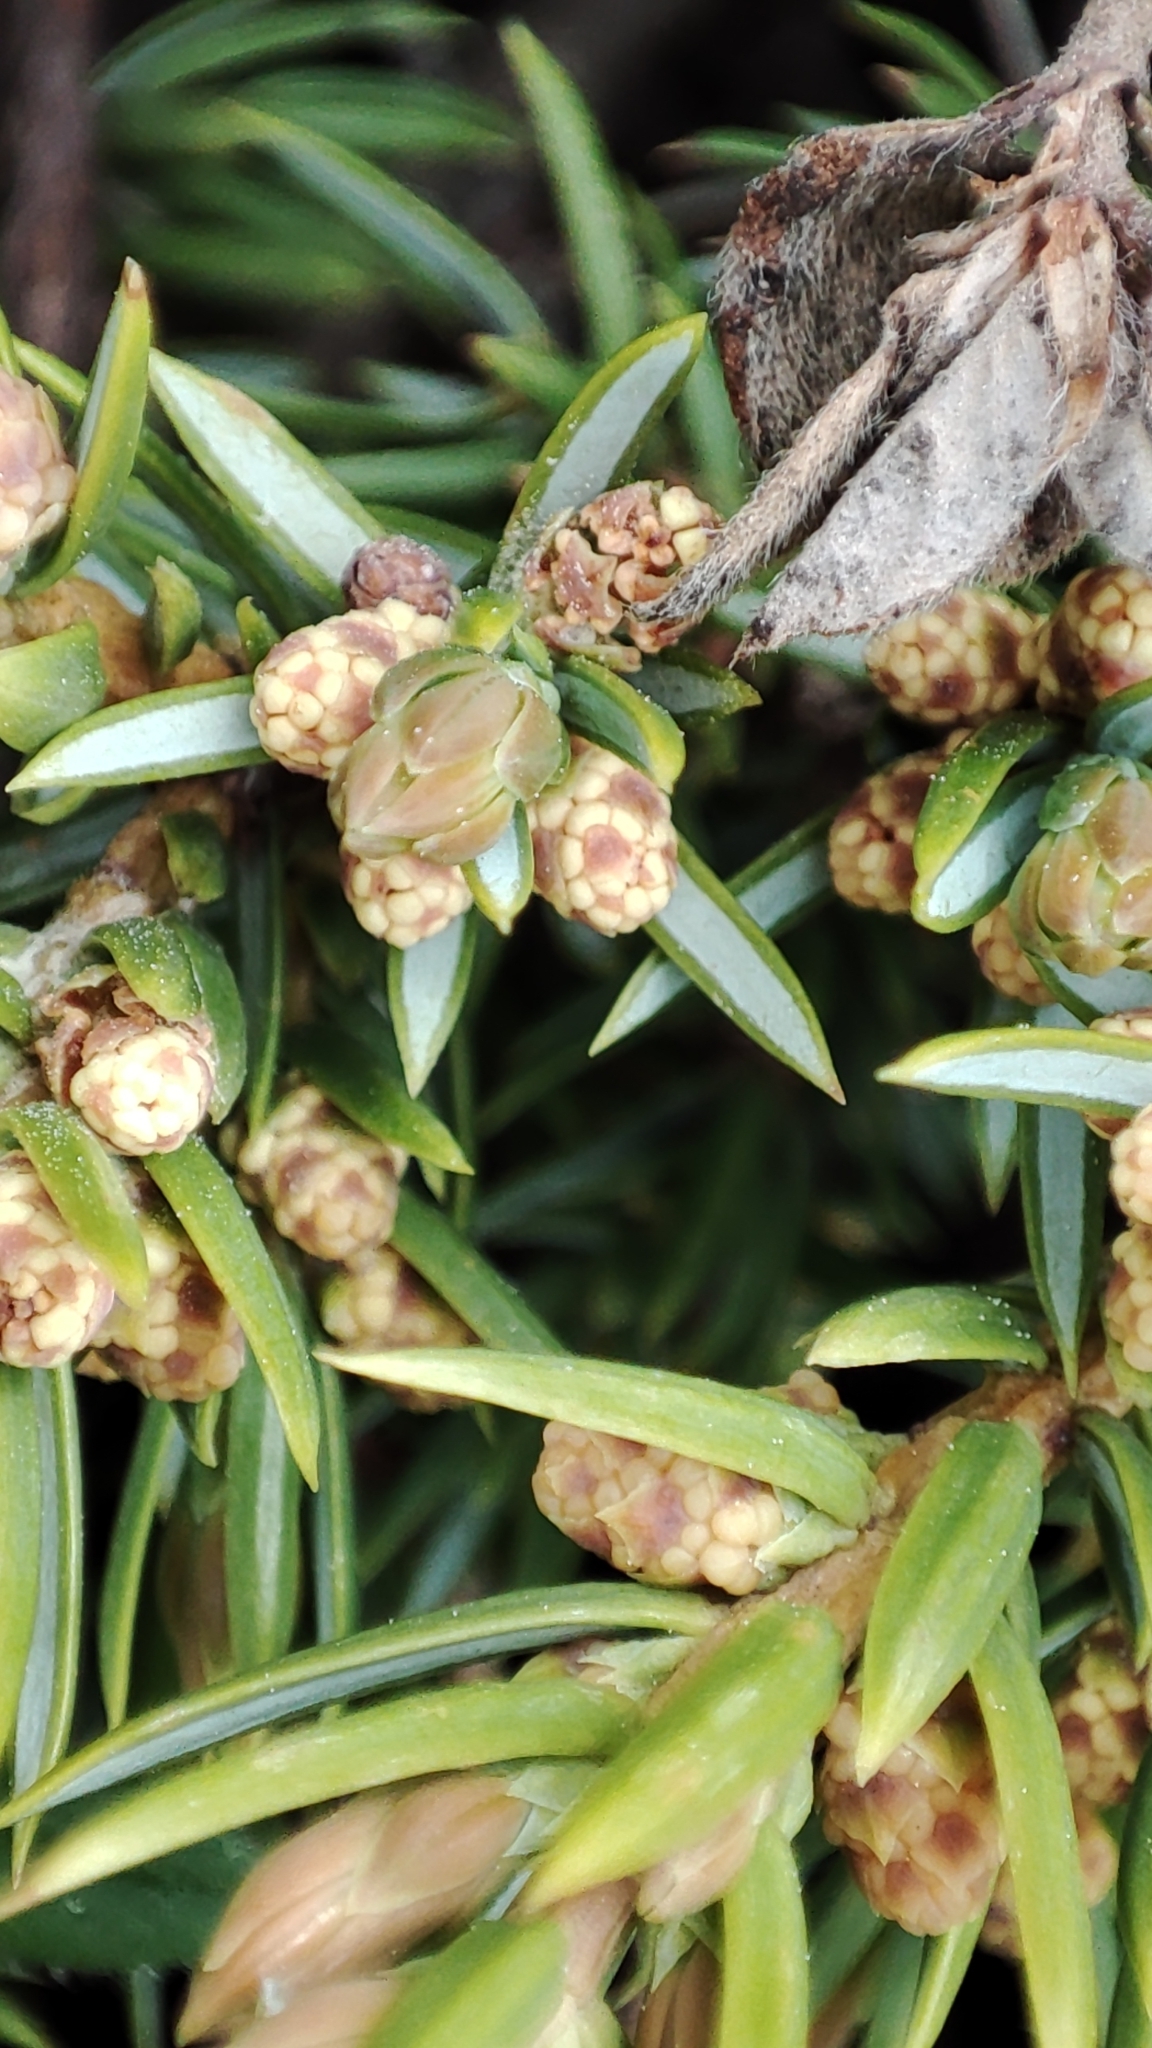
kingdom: Plantae
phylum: Tracheophyta
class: Pinopsida
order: Pinales
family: Cupressaceae
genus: Juniperus
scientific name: Juniperus communis
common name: Common juniper
